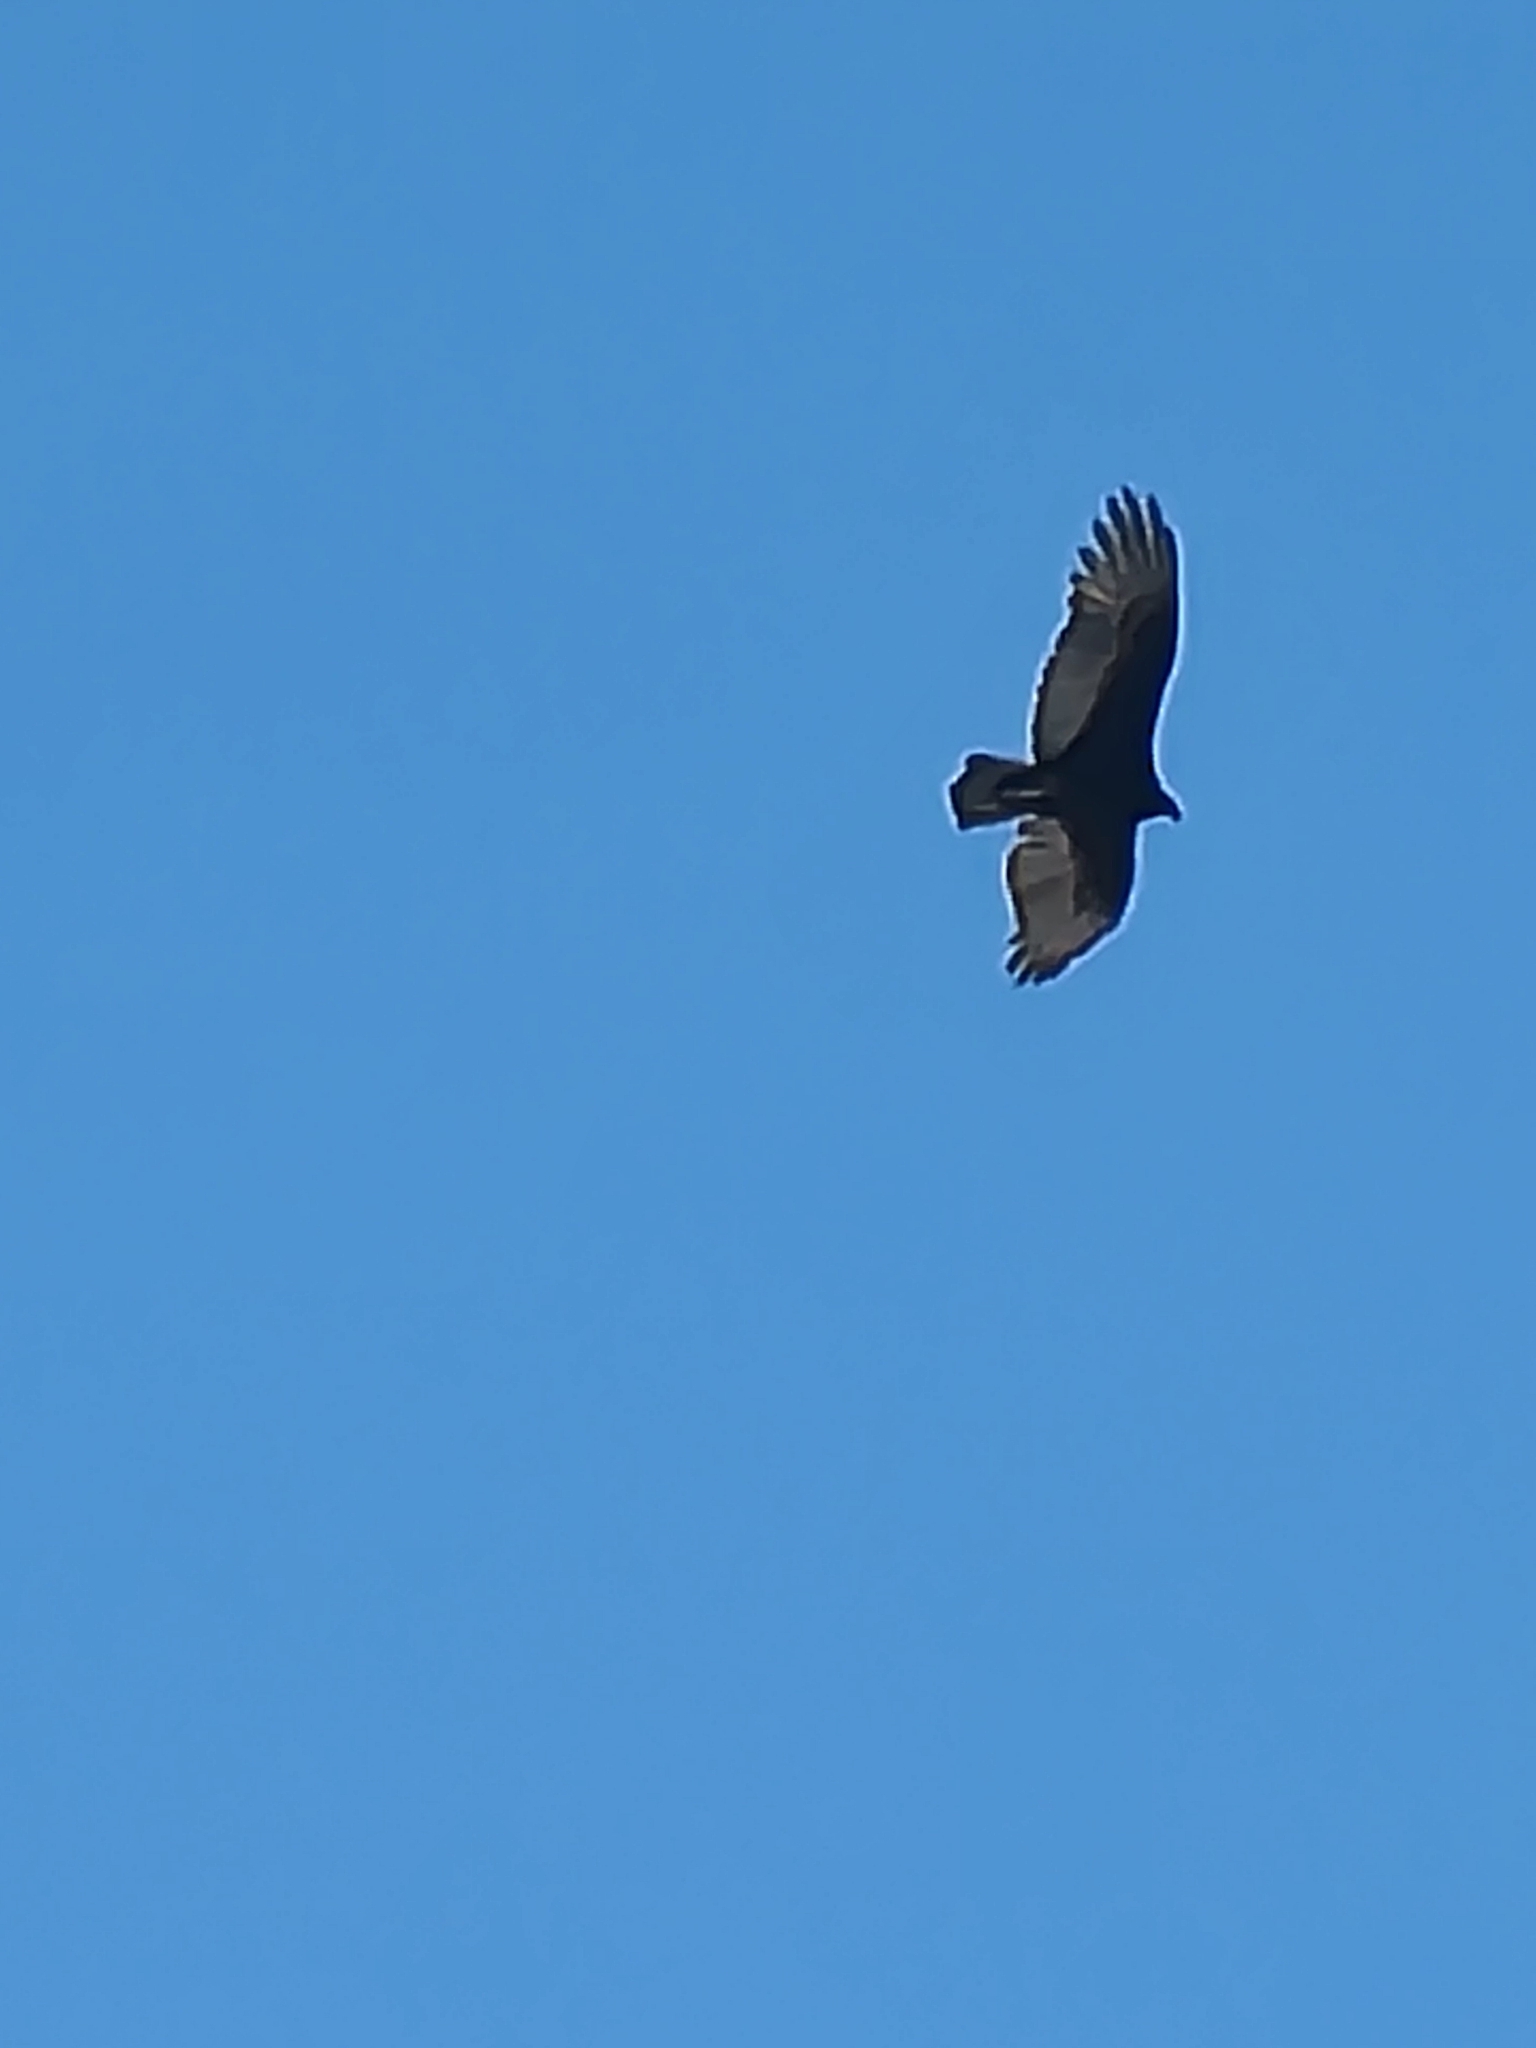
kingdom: Animalia
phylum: Chordata
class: Aves
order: Accipitriformes
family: Cathartidae
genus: Cathartes
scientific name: Cathartes aura
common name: Turkey vulture
